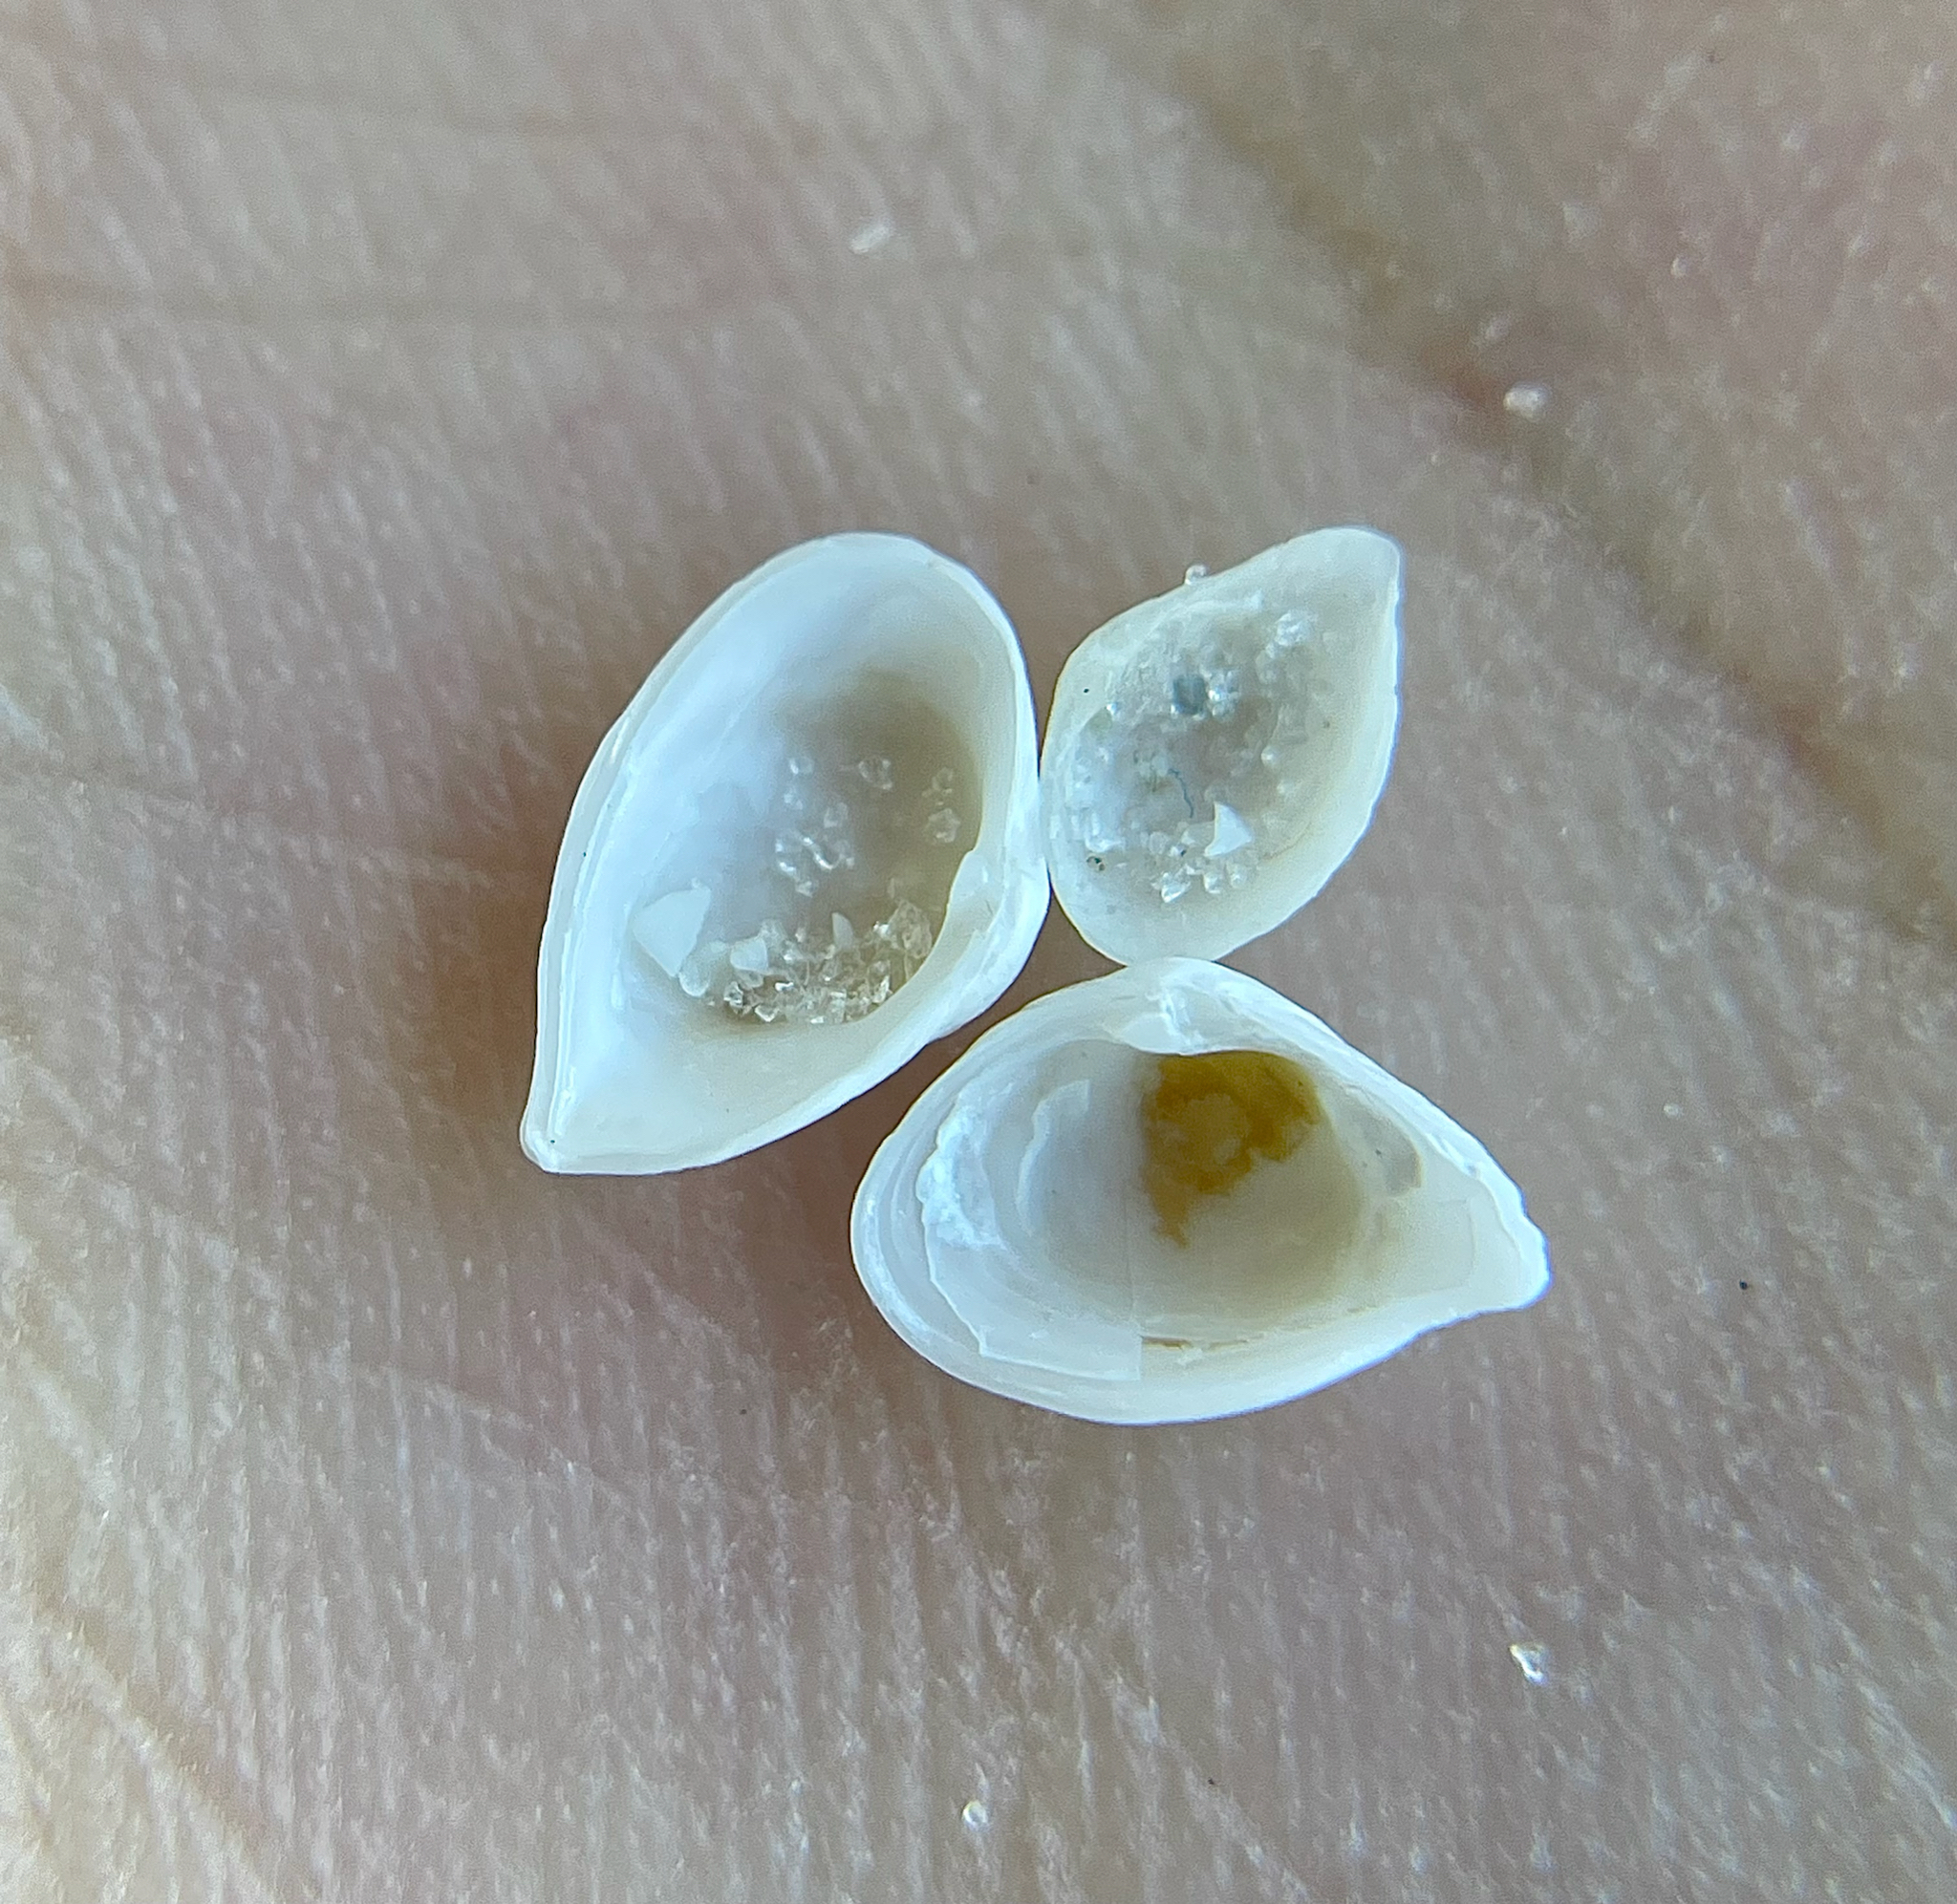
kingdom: Animalia
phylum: Mollusca
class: Bivalvia
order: Myida
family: Corbulidae
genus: Caryocorbula
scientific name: Caryocorbula swiftiana
